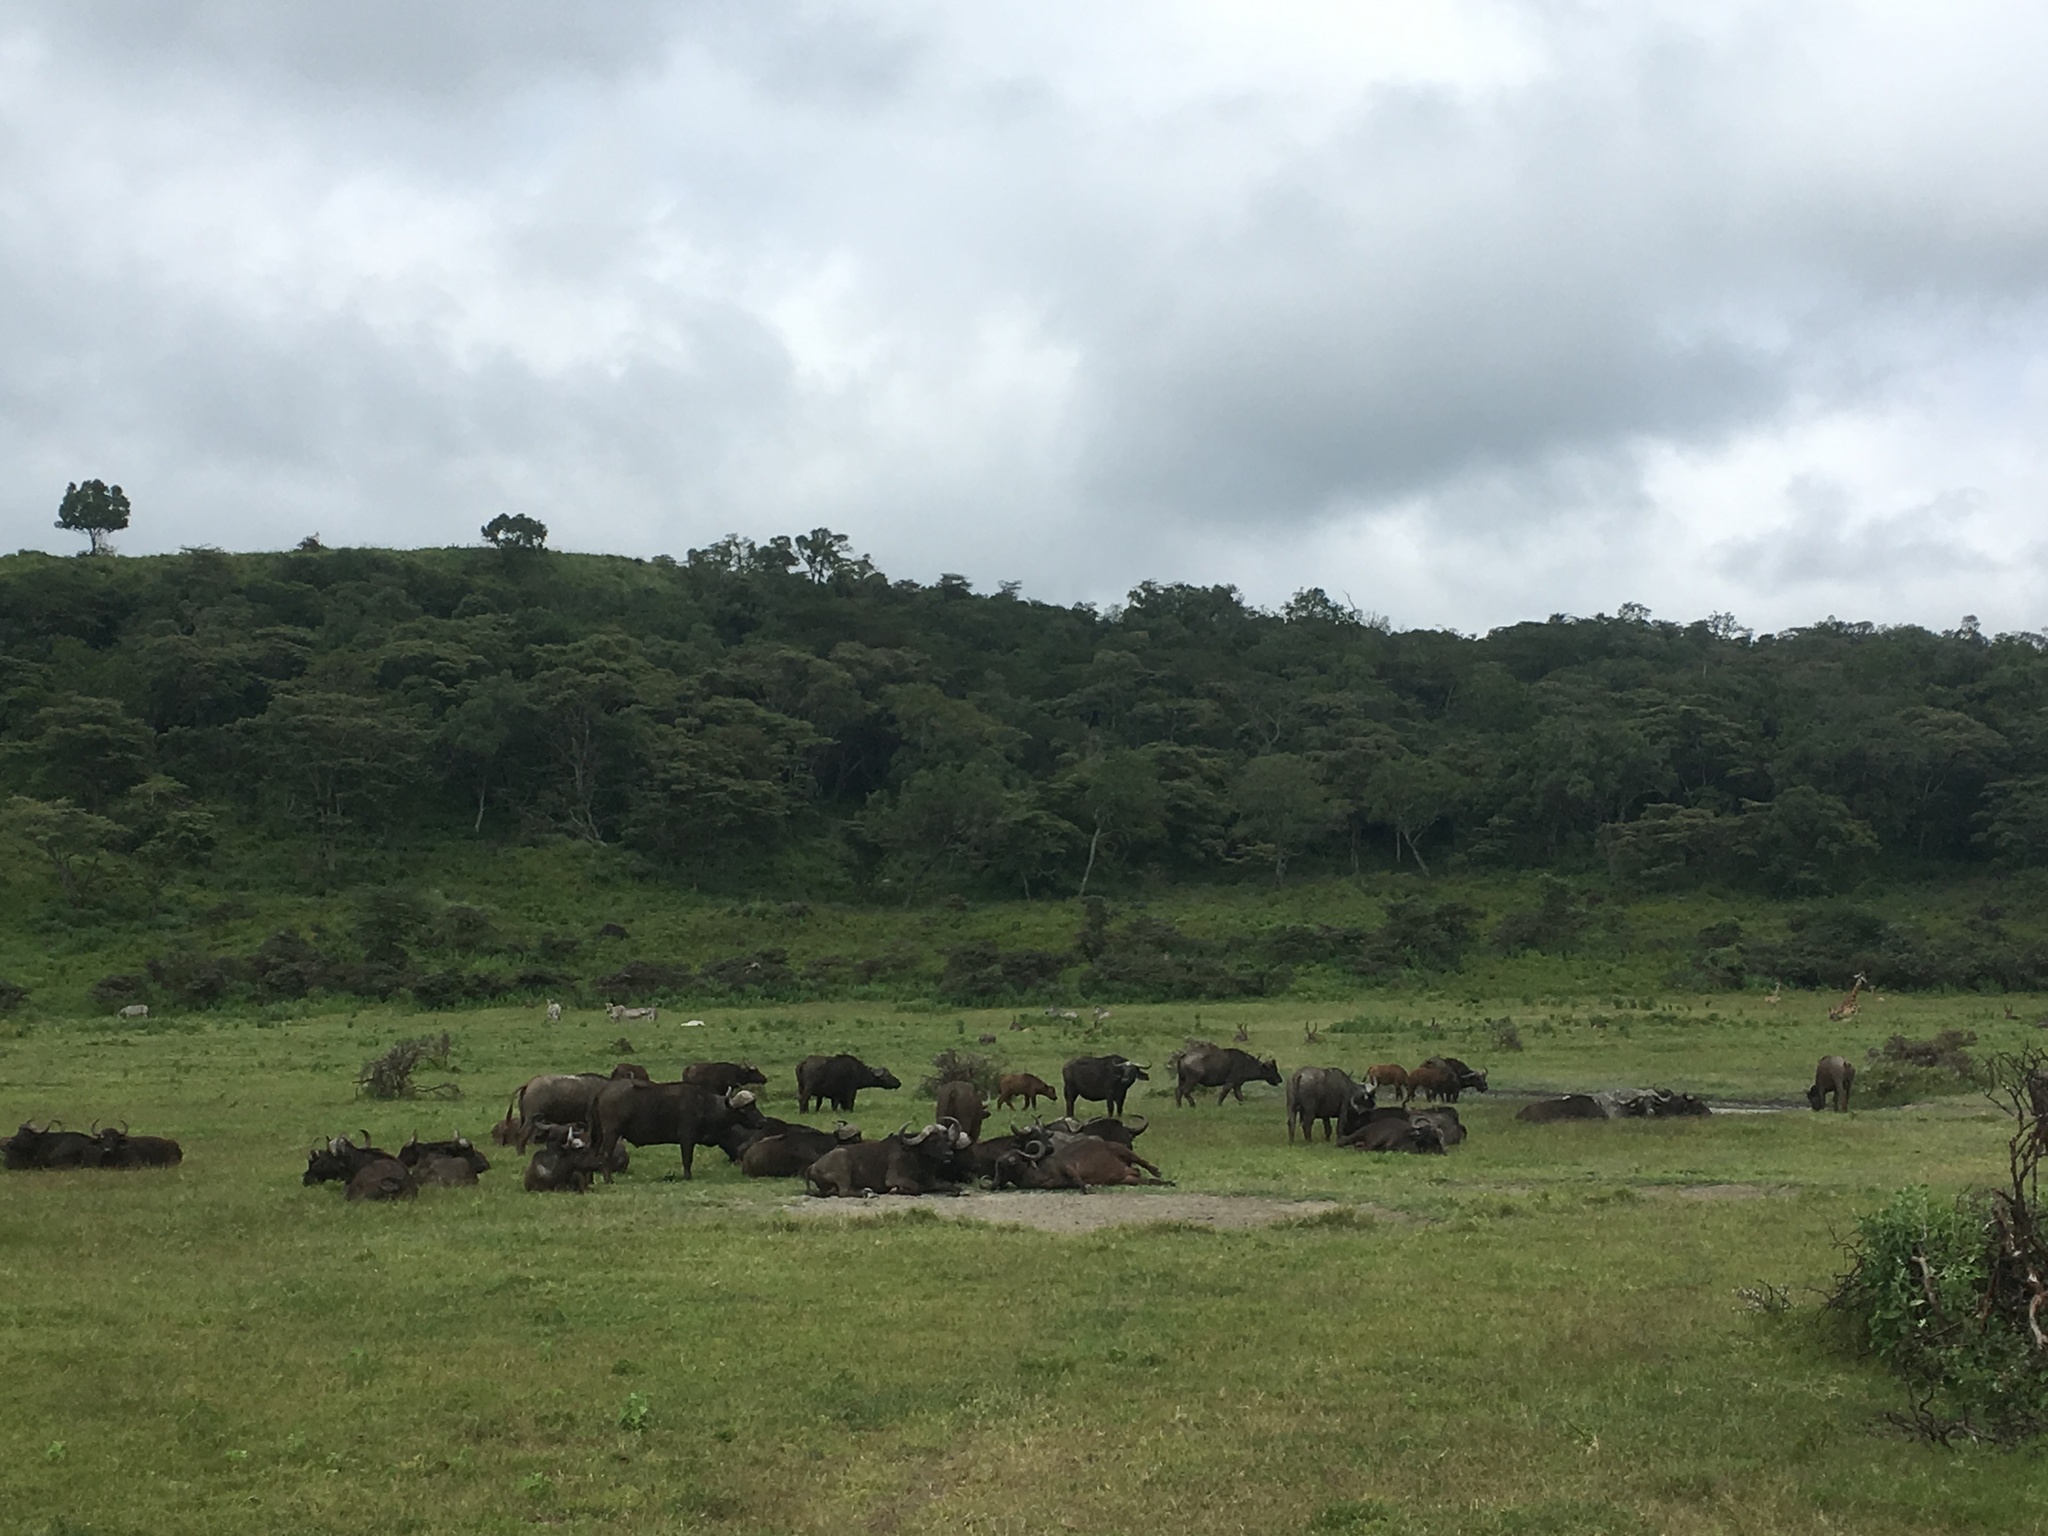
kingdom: Animalia
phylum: Chordata
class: Mammalia
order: Artiodactyla
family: Bovidae
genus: Syncerus
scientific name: Syncerus caffer
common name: African buffalo
